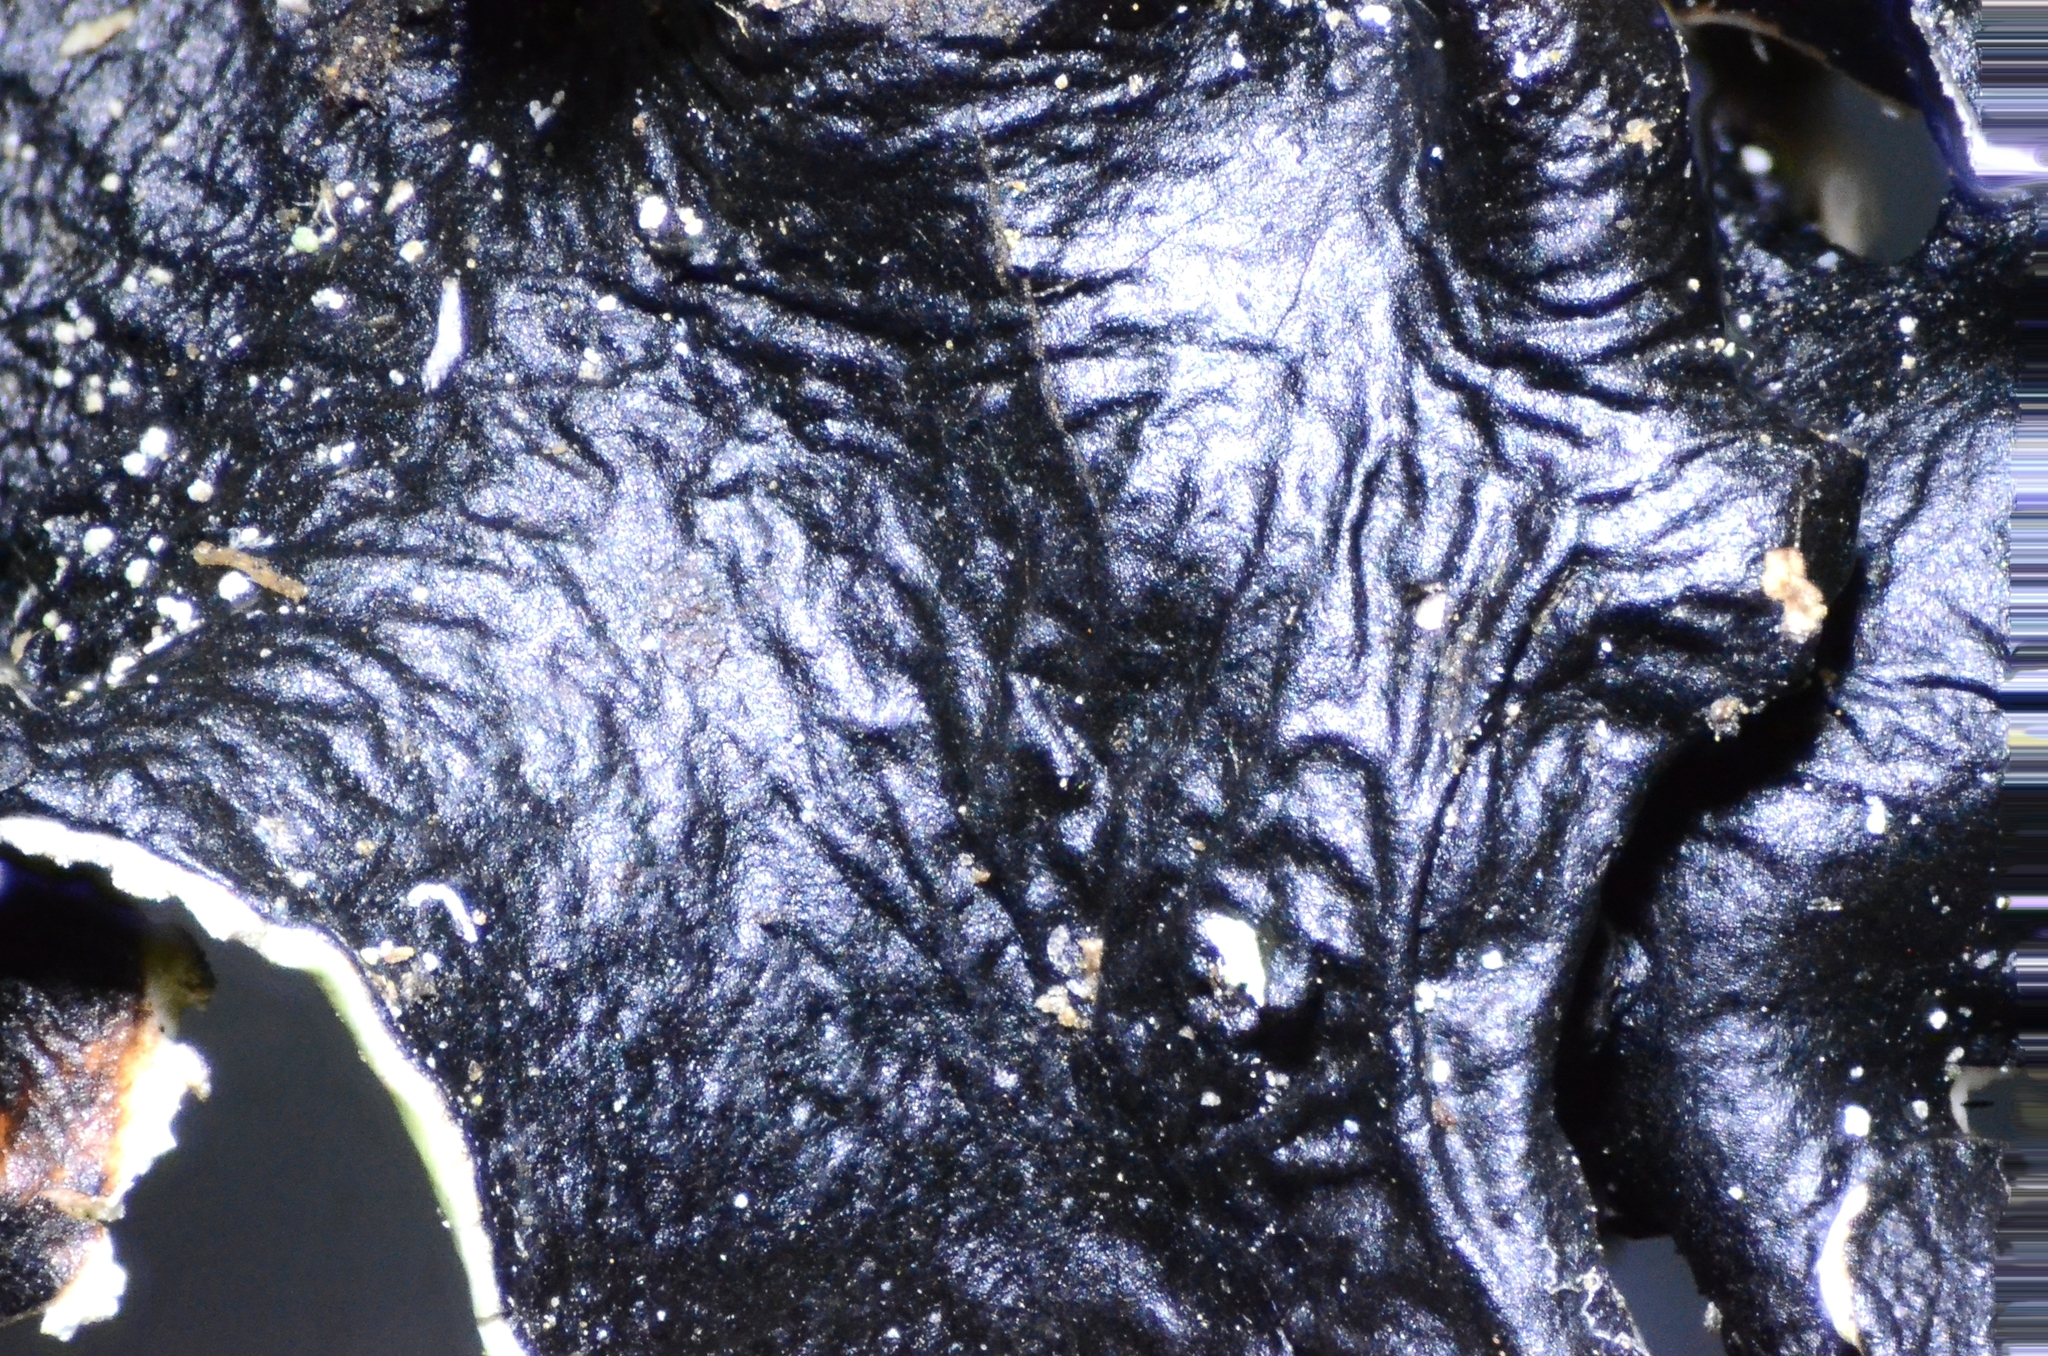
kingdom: Fungi
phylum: Ascomycota
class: Lecanoromycetes
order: Lecanorales
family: Parmeliaceae
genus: Flavopunctelia
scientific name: Flavopunctelia flaventior
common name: Speckled greenshield
